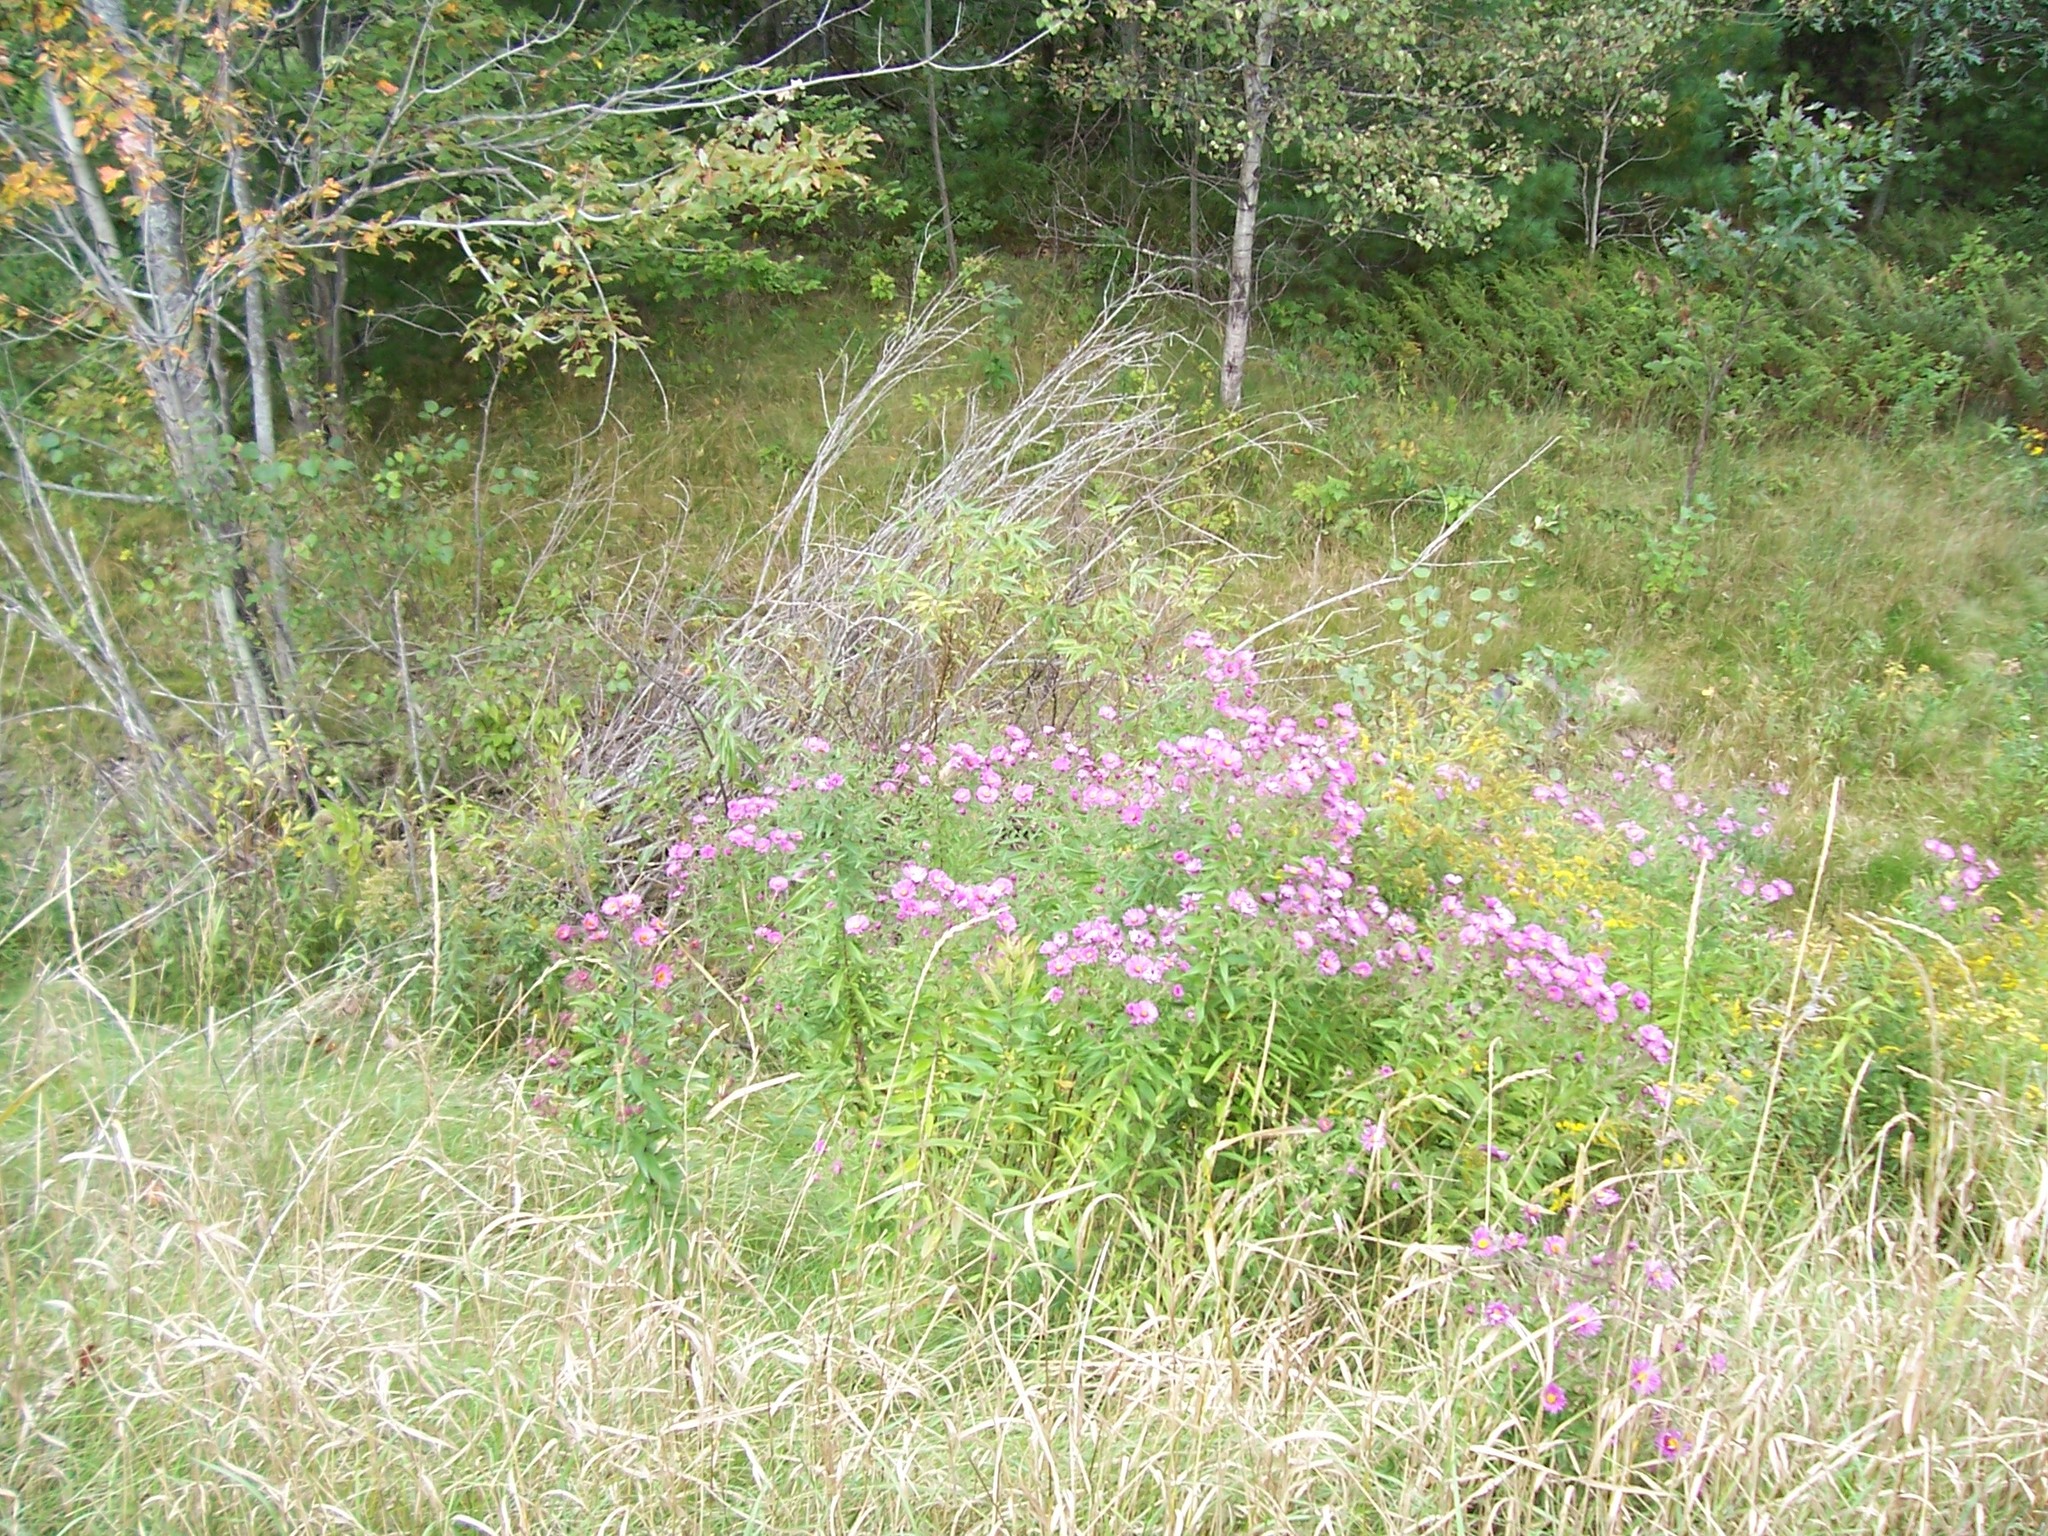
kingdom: Plantae
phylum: Tracheophyta
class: Magnoliopsida
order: Asterales
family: Asteraceae
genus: Symphyotrichum
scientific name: Symphyotrichum novae-angliae
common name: Michaelmas daisy
